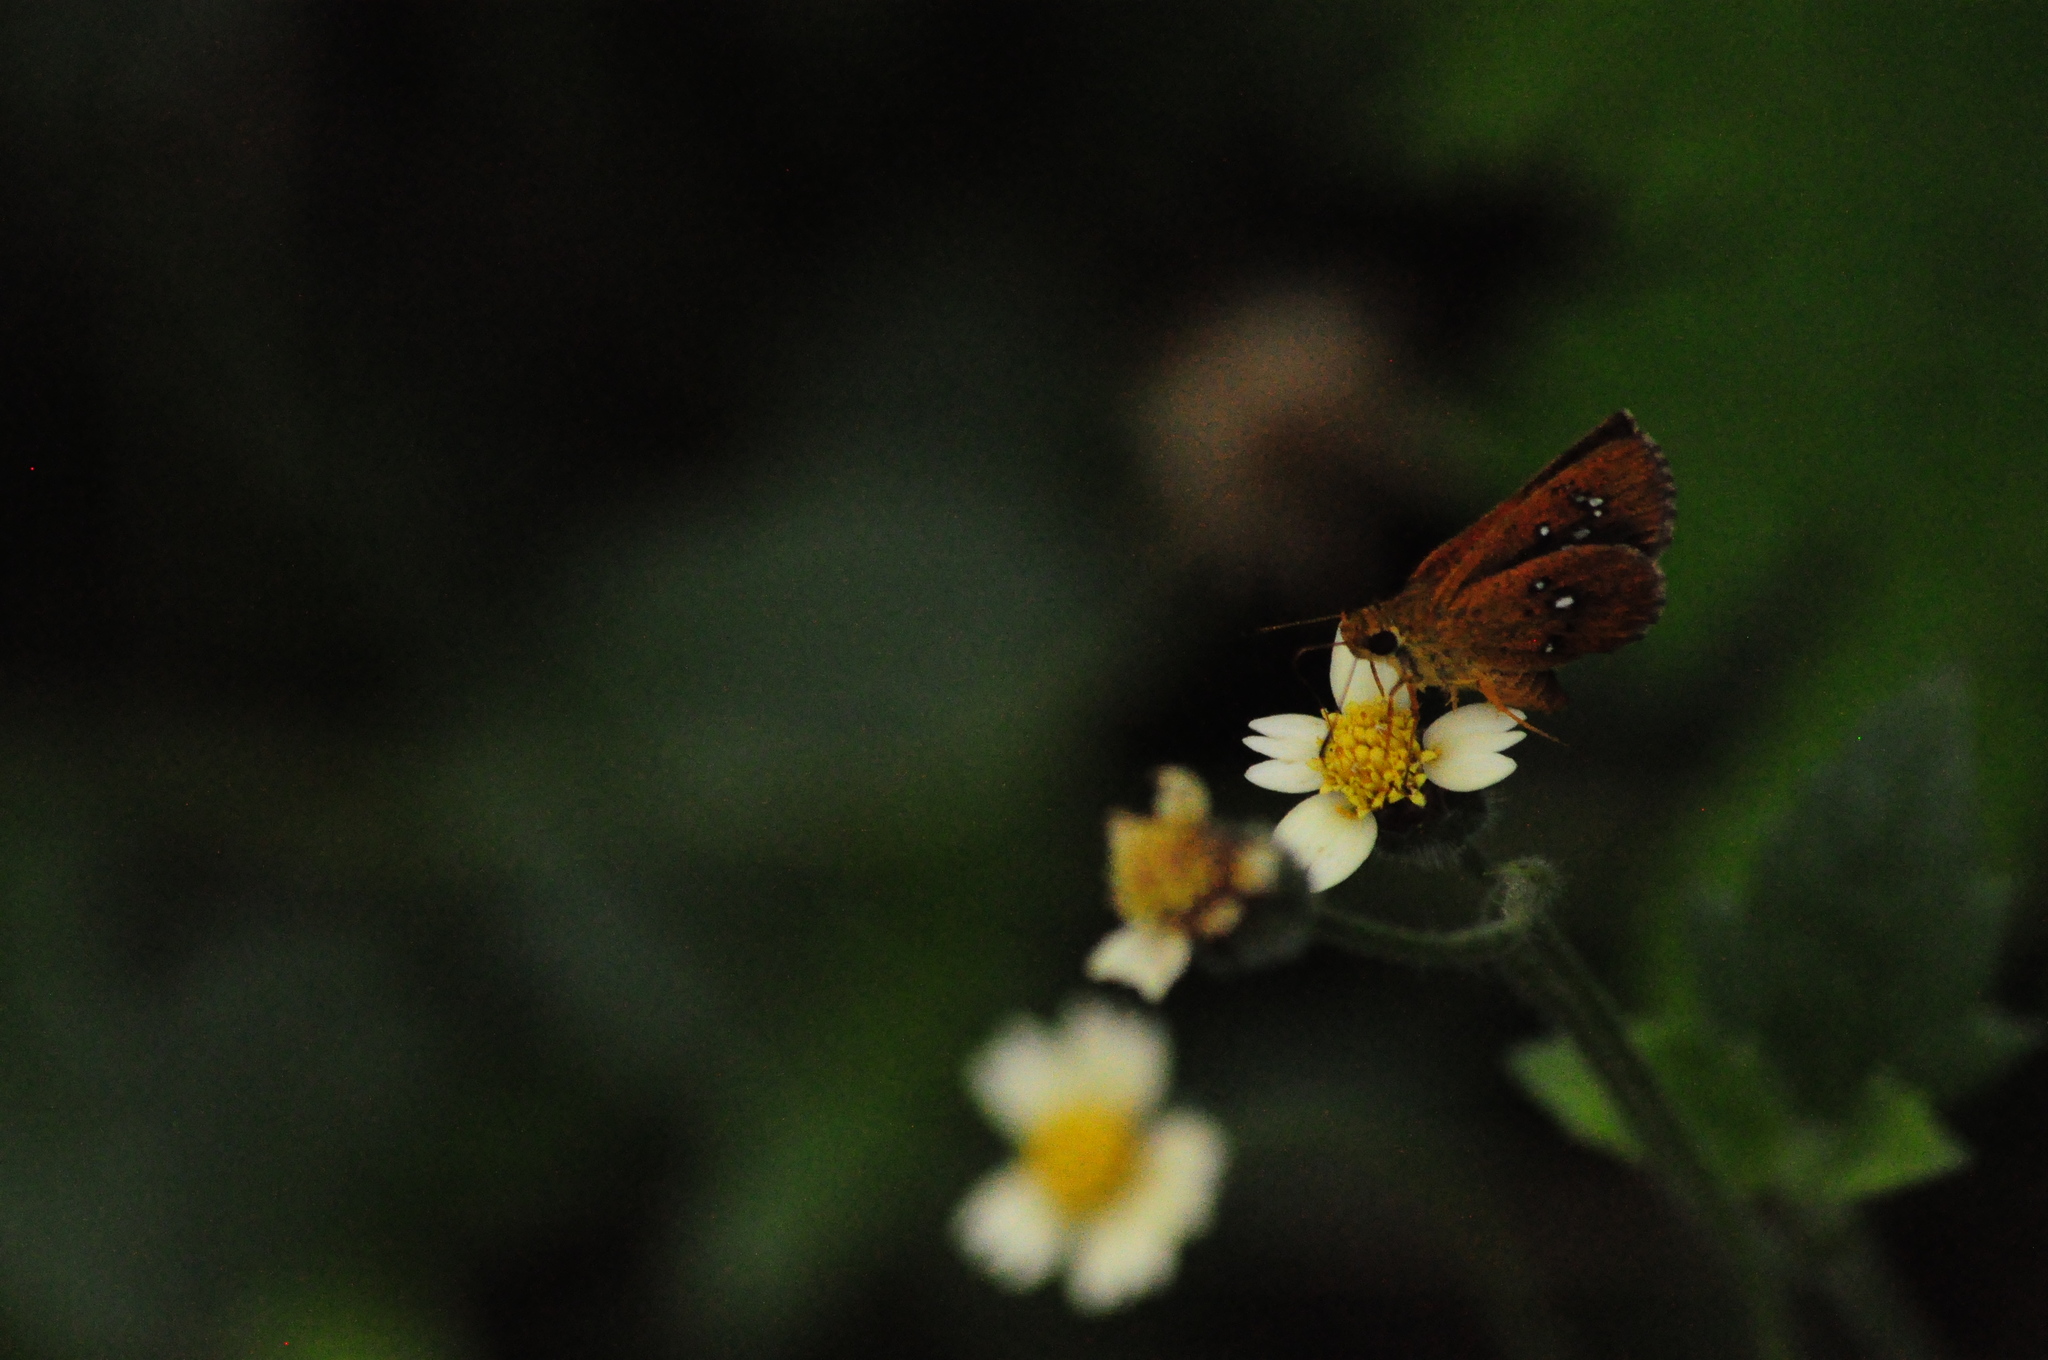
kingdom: Animalia
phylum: Arthropoda
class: Insecta
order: Lepidoptera
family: Hesperiidae
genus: Iambrix
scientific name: Iambrix salsala
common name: Chestnut bob
